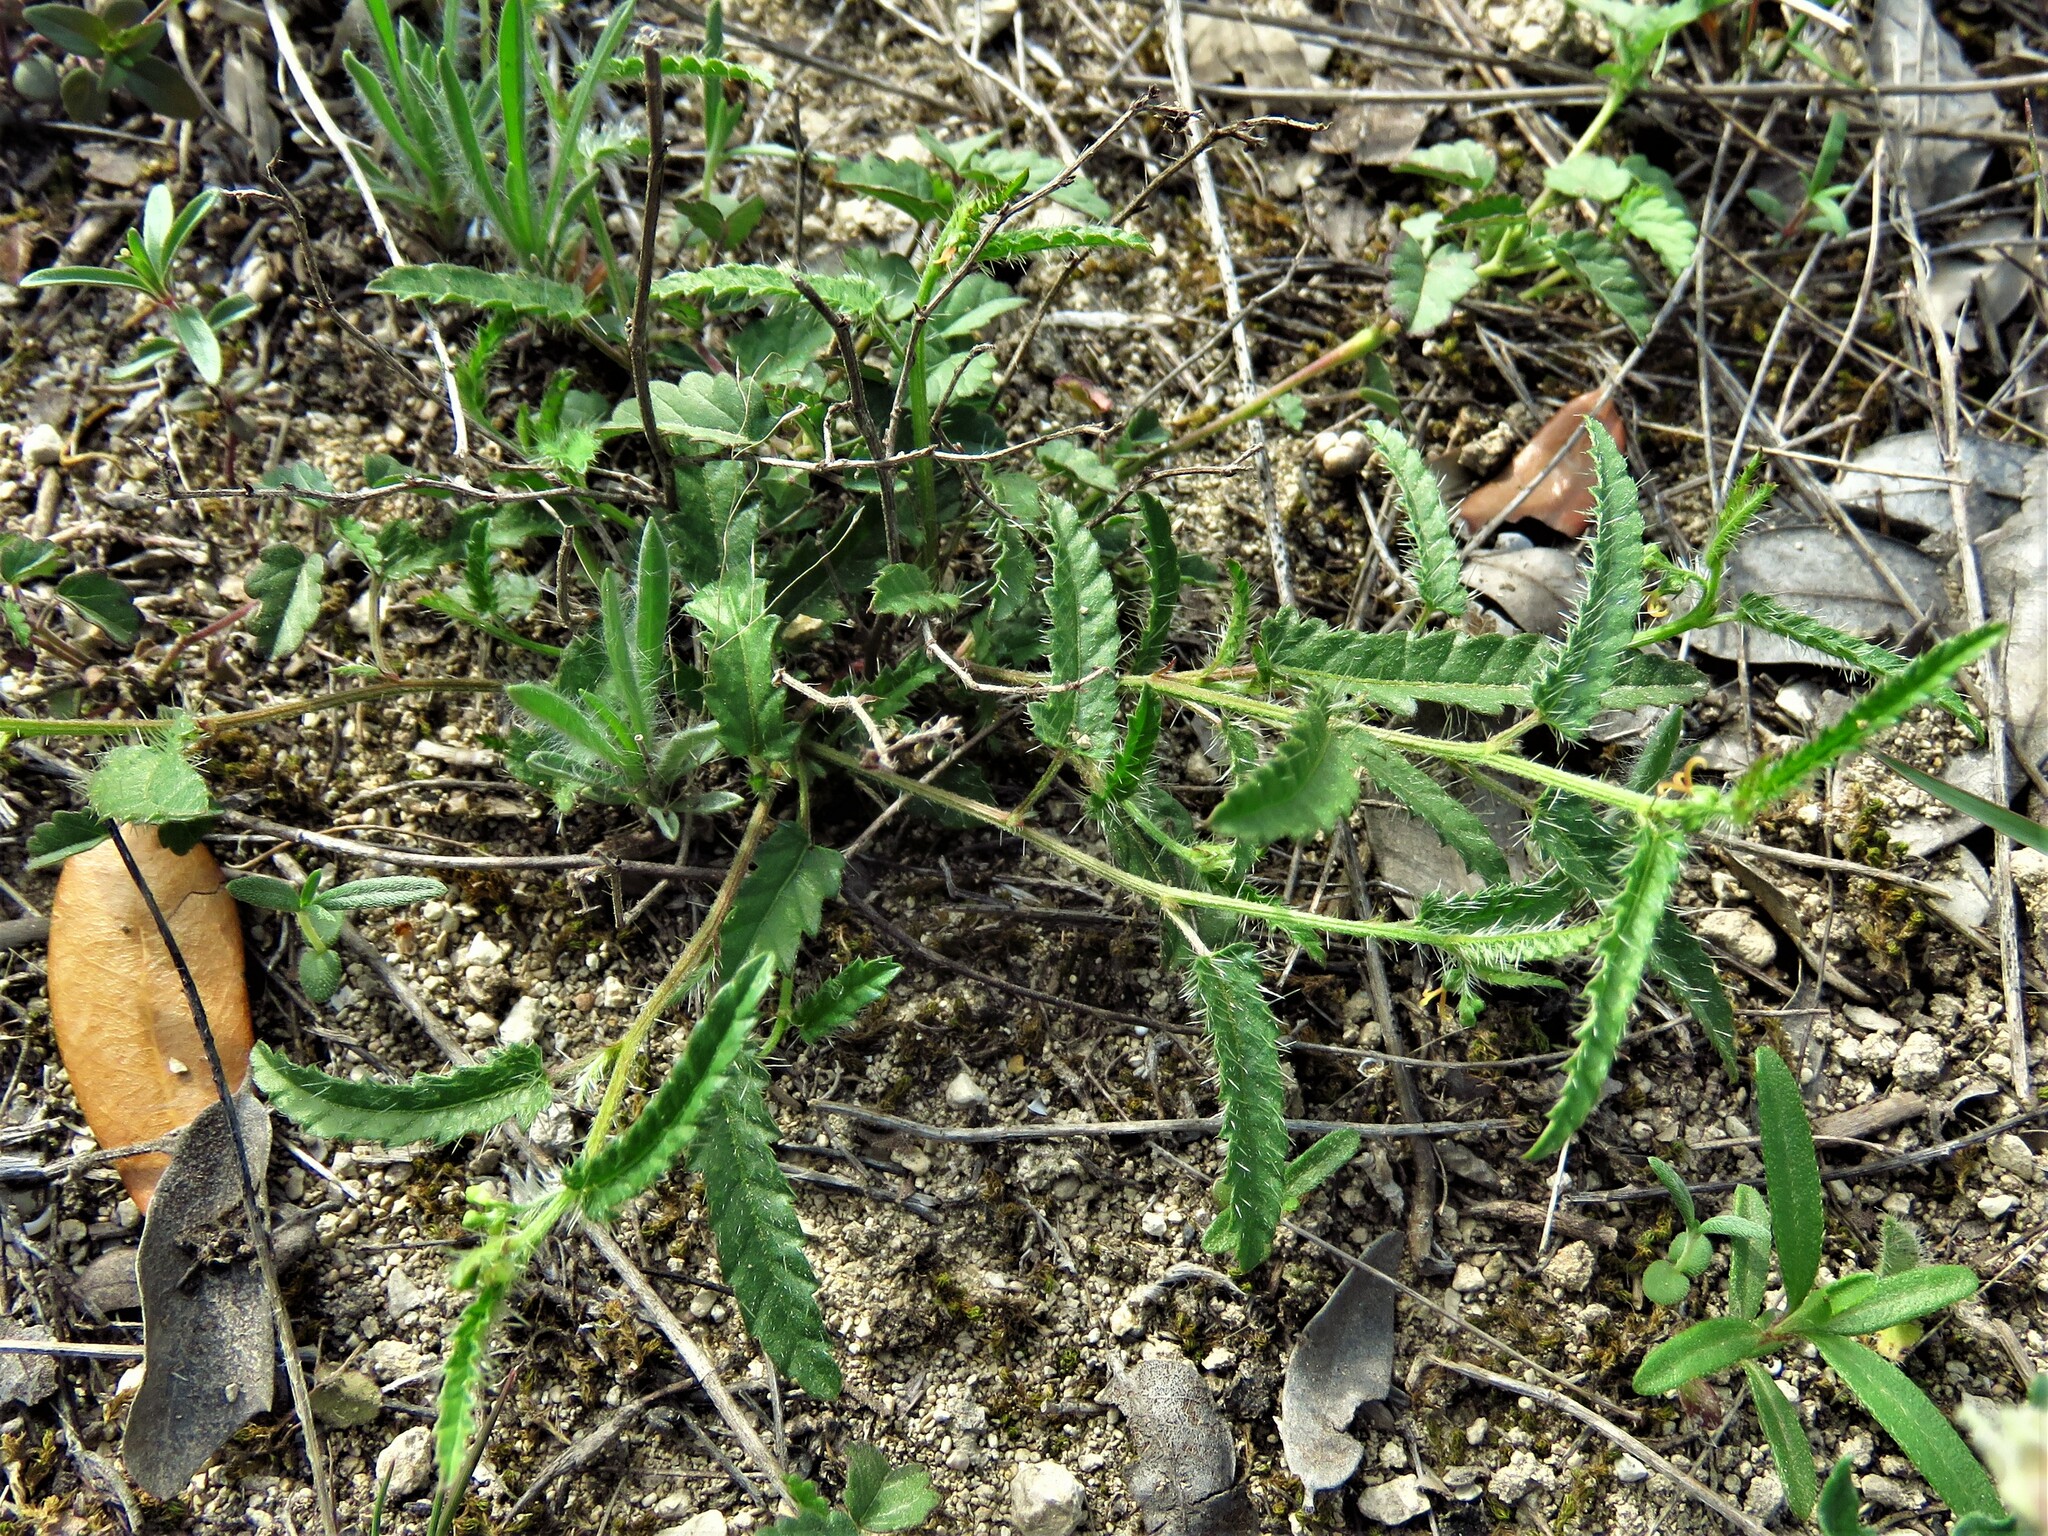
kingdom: Plantae
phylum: Tracheophyta
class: Magnoliopsida
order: Malpighiales
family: Euphorbiaceae
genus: Tragia
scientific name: Tragia ramosa
